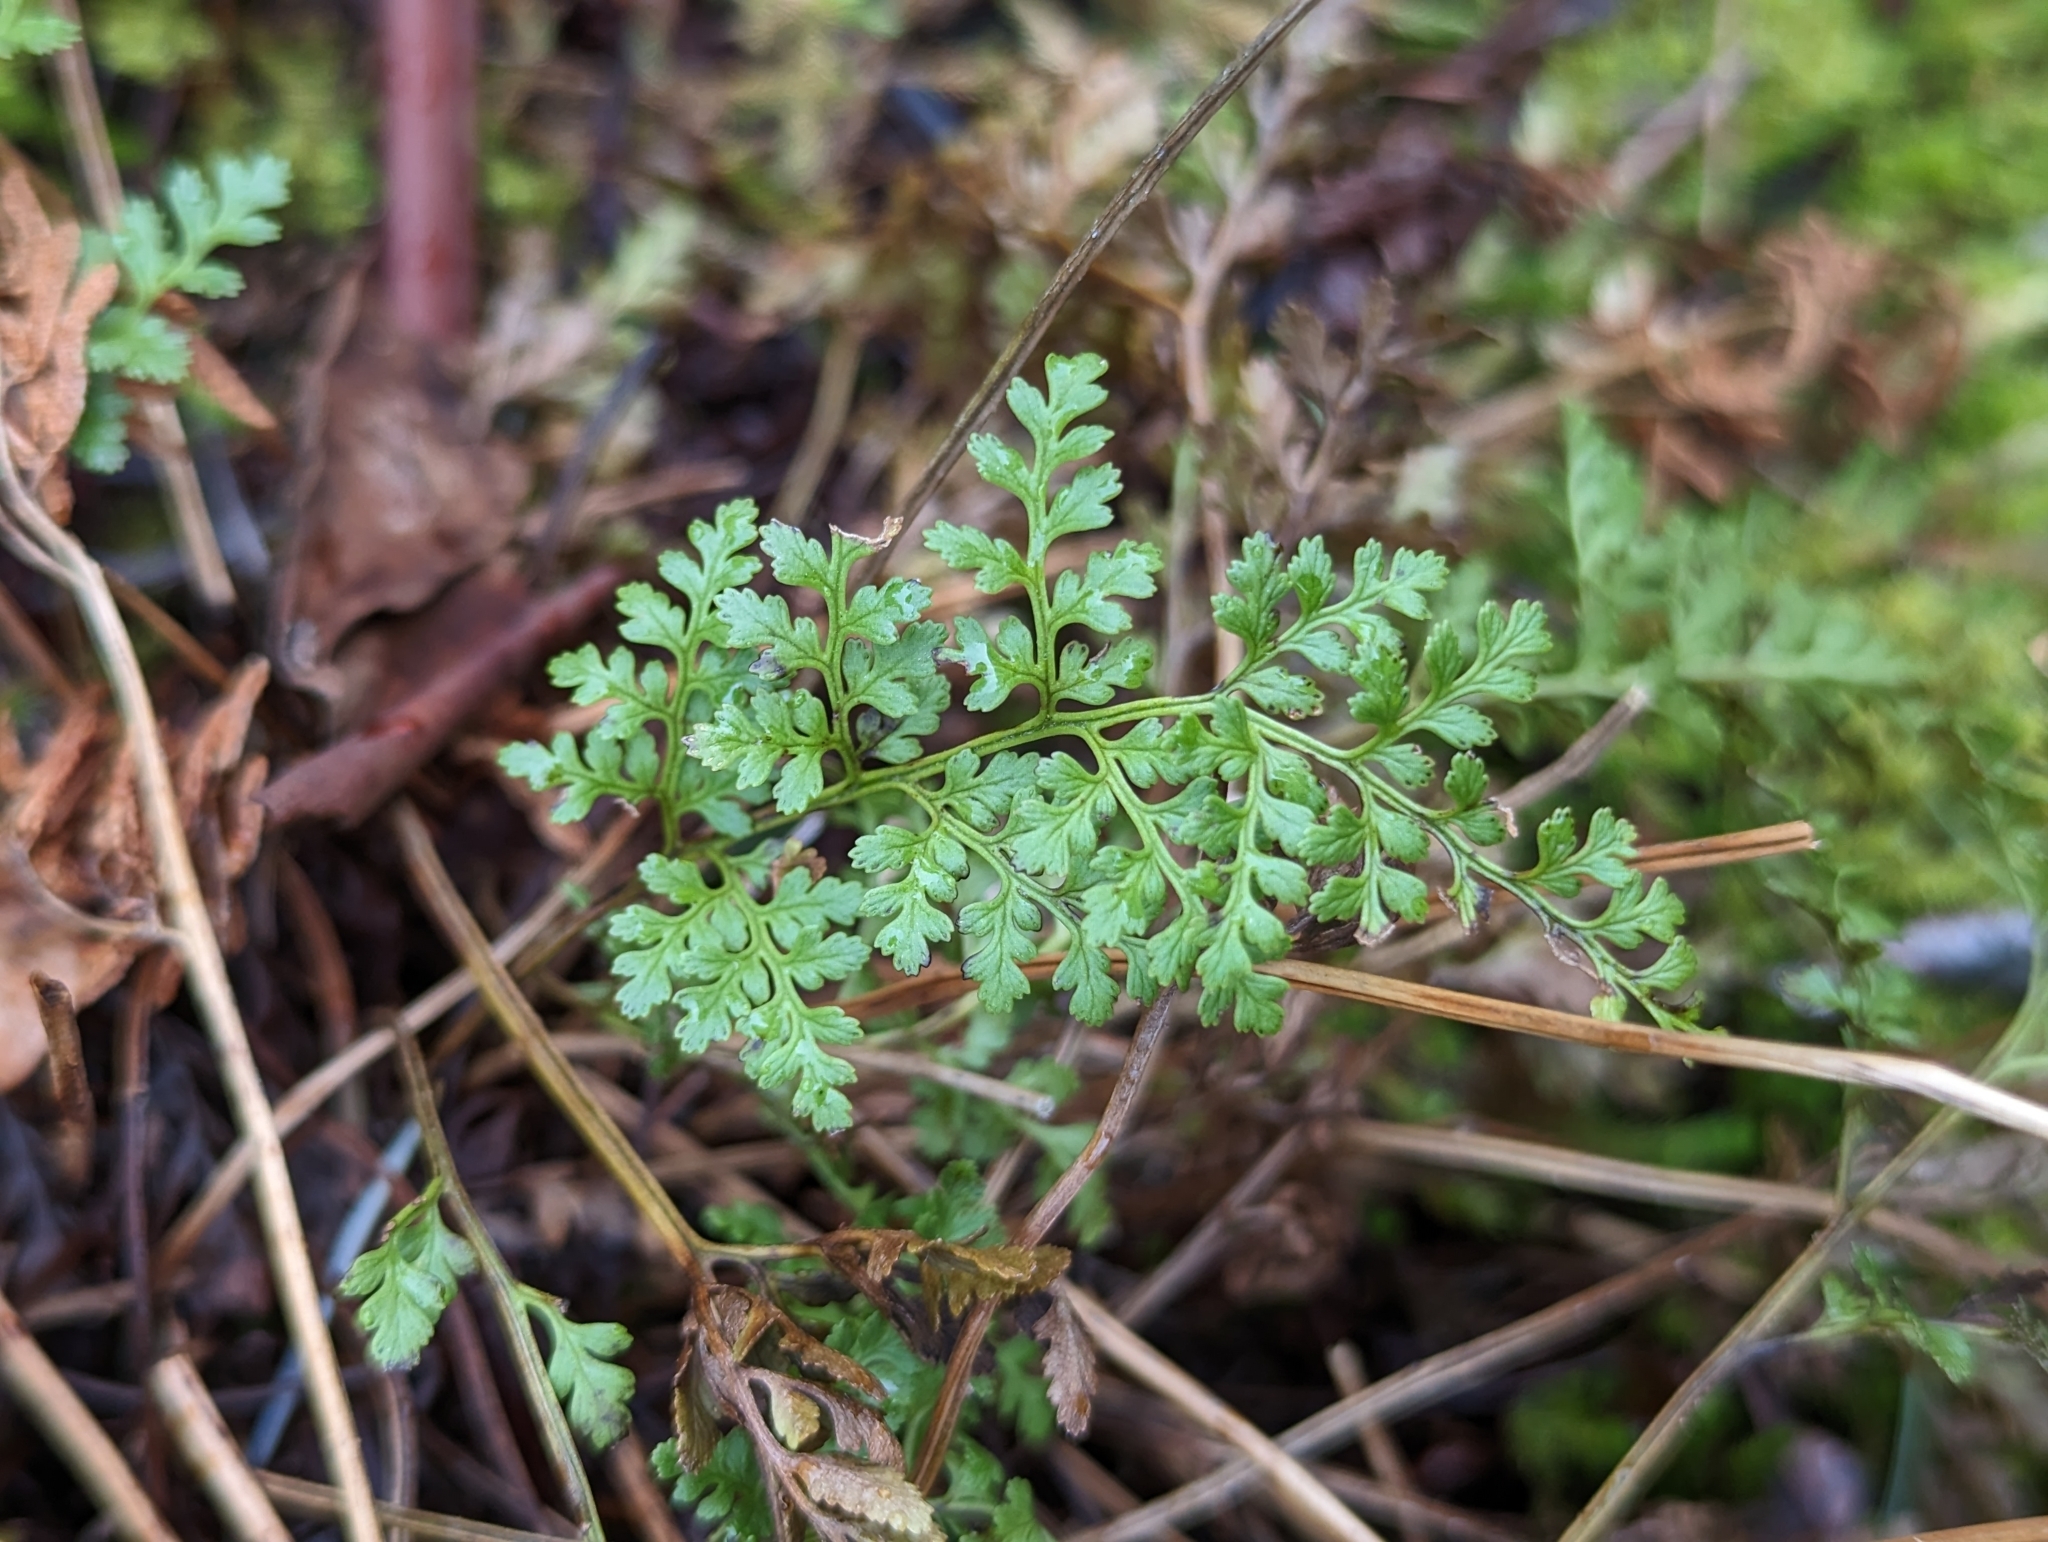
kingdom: Plantae
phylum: Tracheophyta
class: Polypodiopsida
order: Polypodiales
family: Pteridaceae
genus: Cryptogramma
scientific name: Cryptogramma acrostichoides
